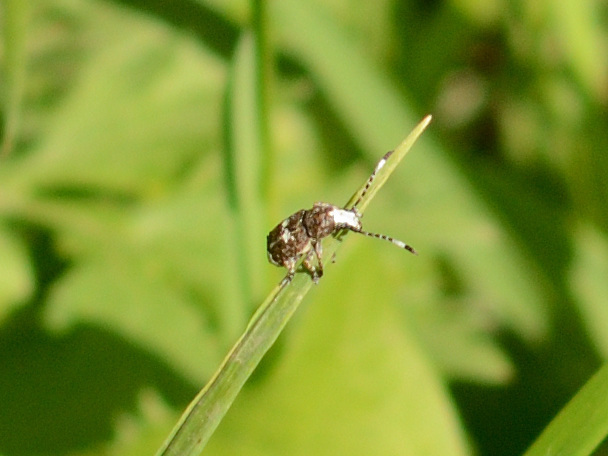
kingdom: Animalia
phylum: Arthropoda
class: Insecta
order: Coleoptera
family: Anthribidae
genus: Platystomos
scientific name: Platystomos albinus
